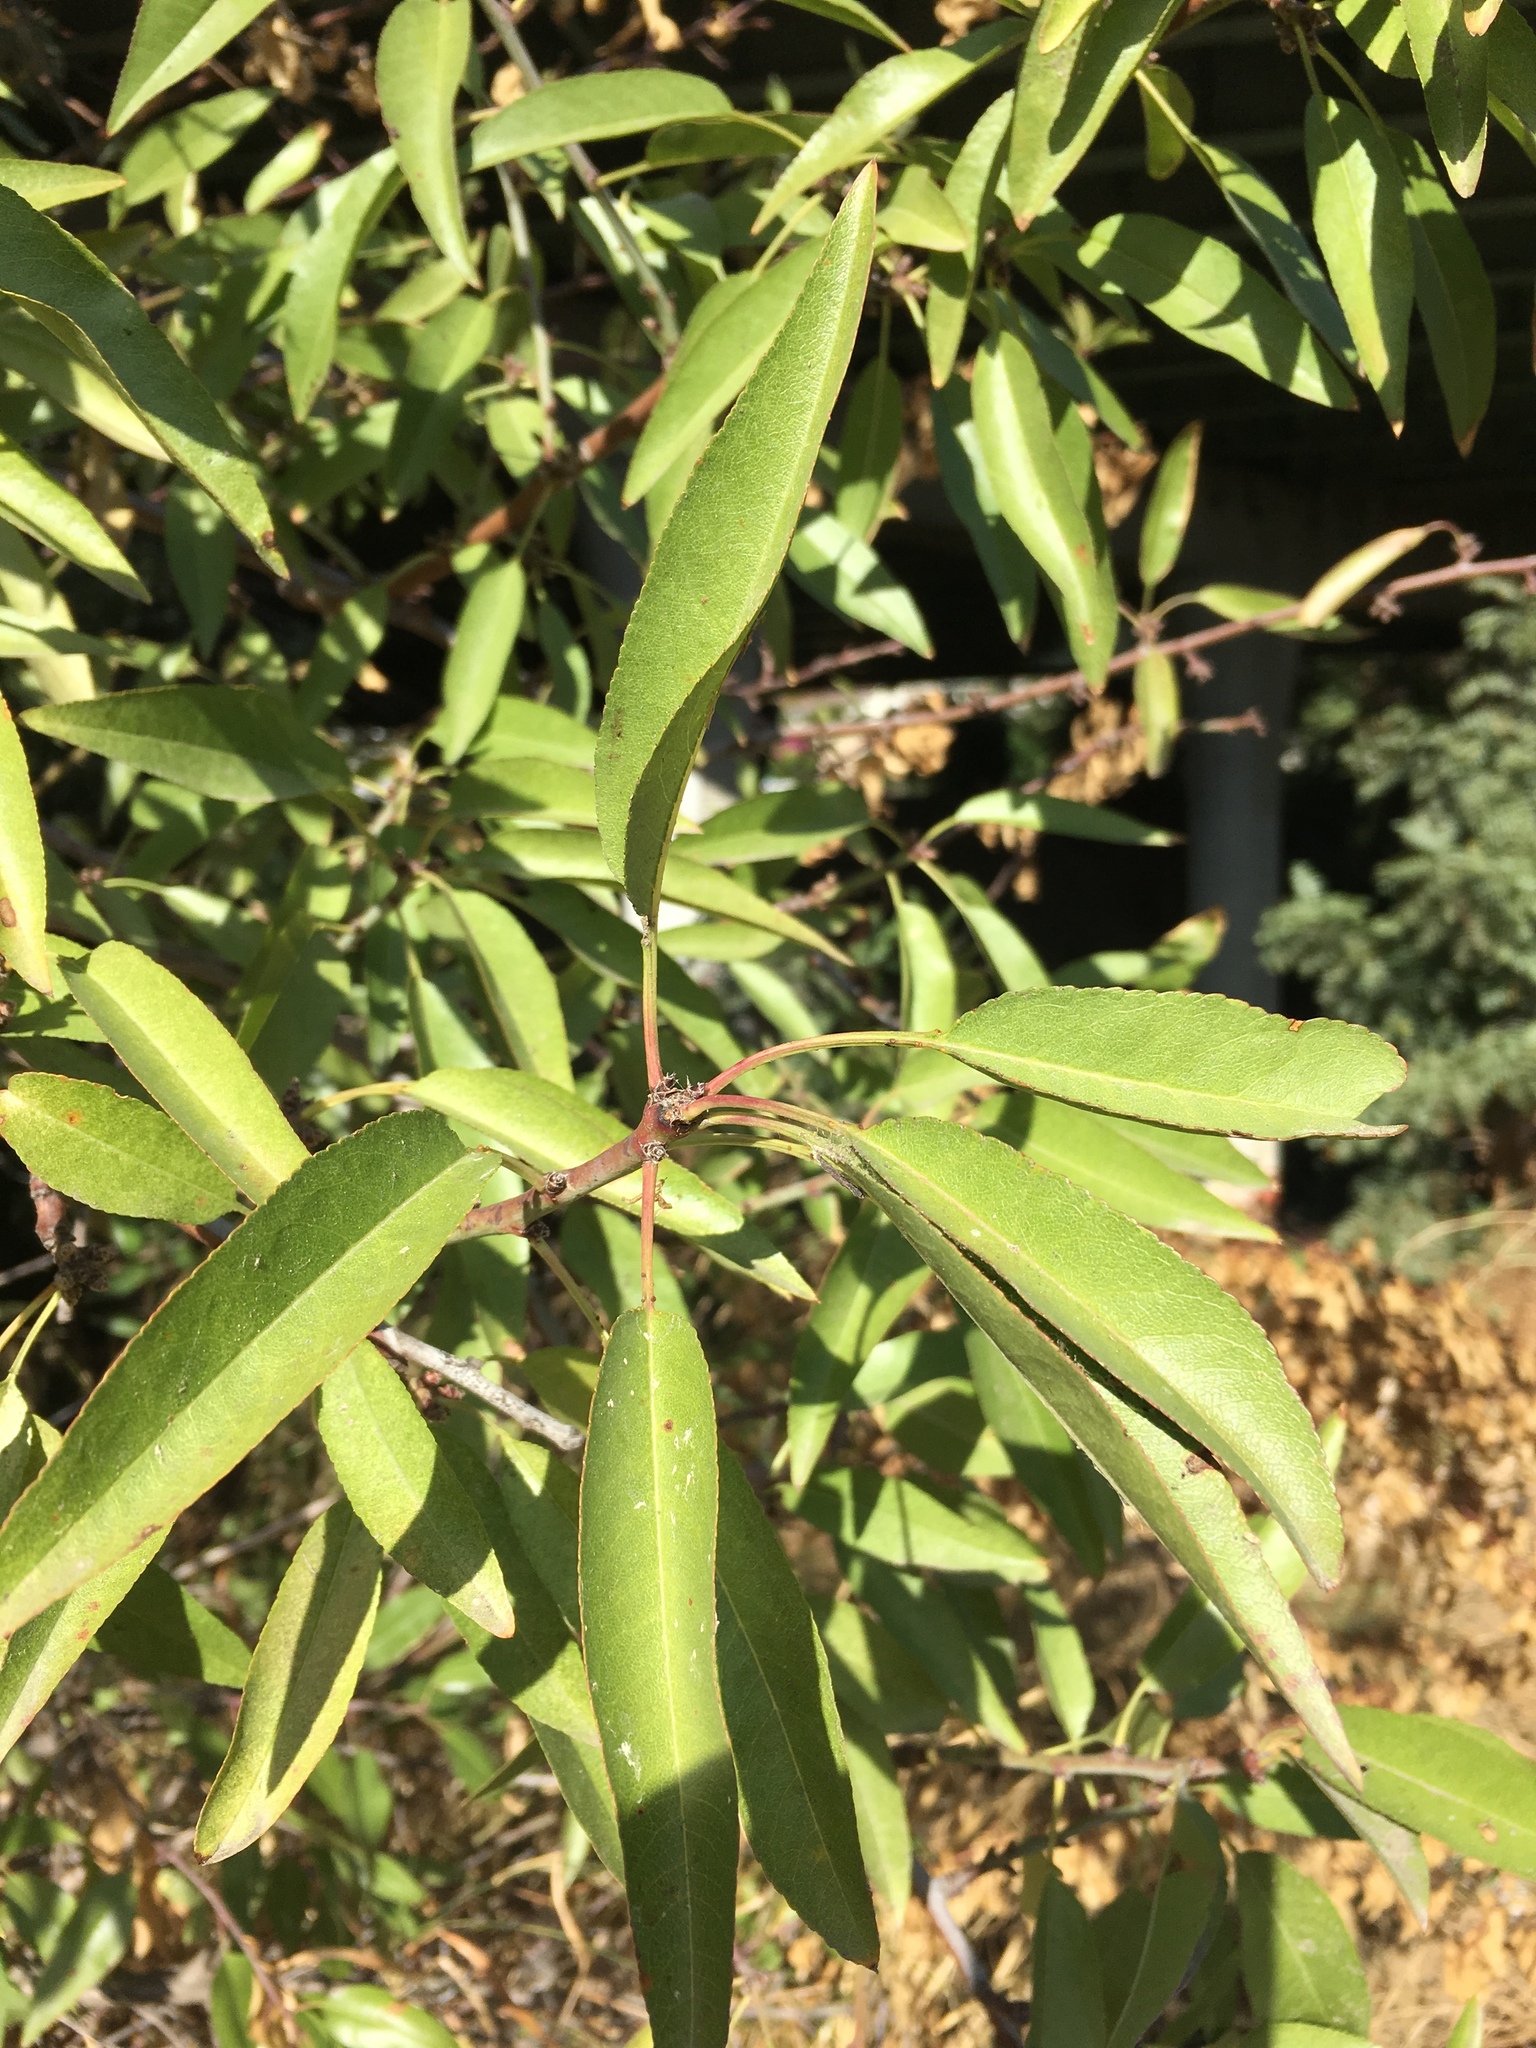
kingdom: Plantae
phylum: Tracheophyta
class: Magnoliopsida
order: Rosales
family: Rosaceae
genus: Prunus
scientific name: Prunus amygdalus
